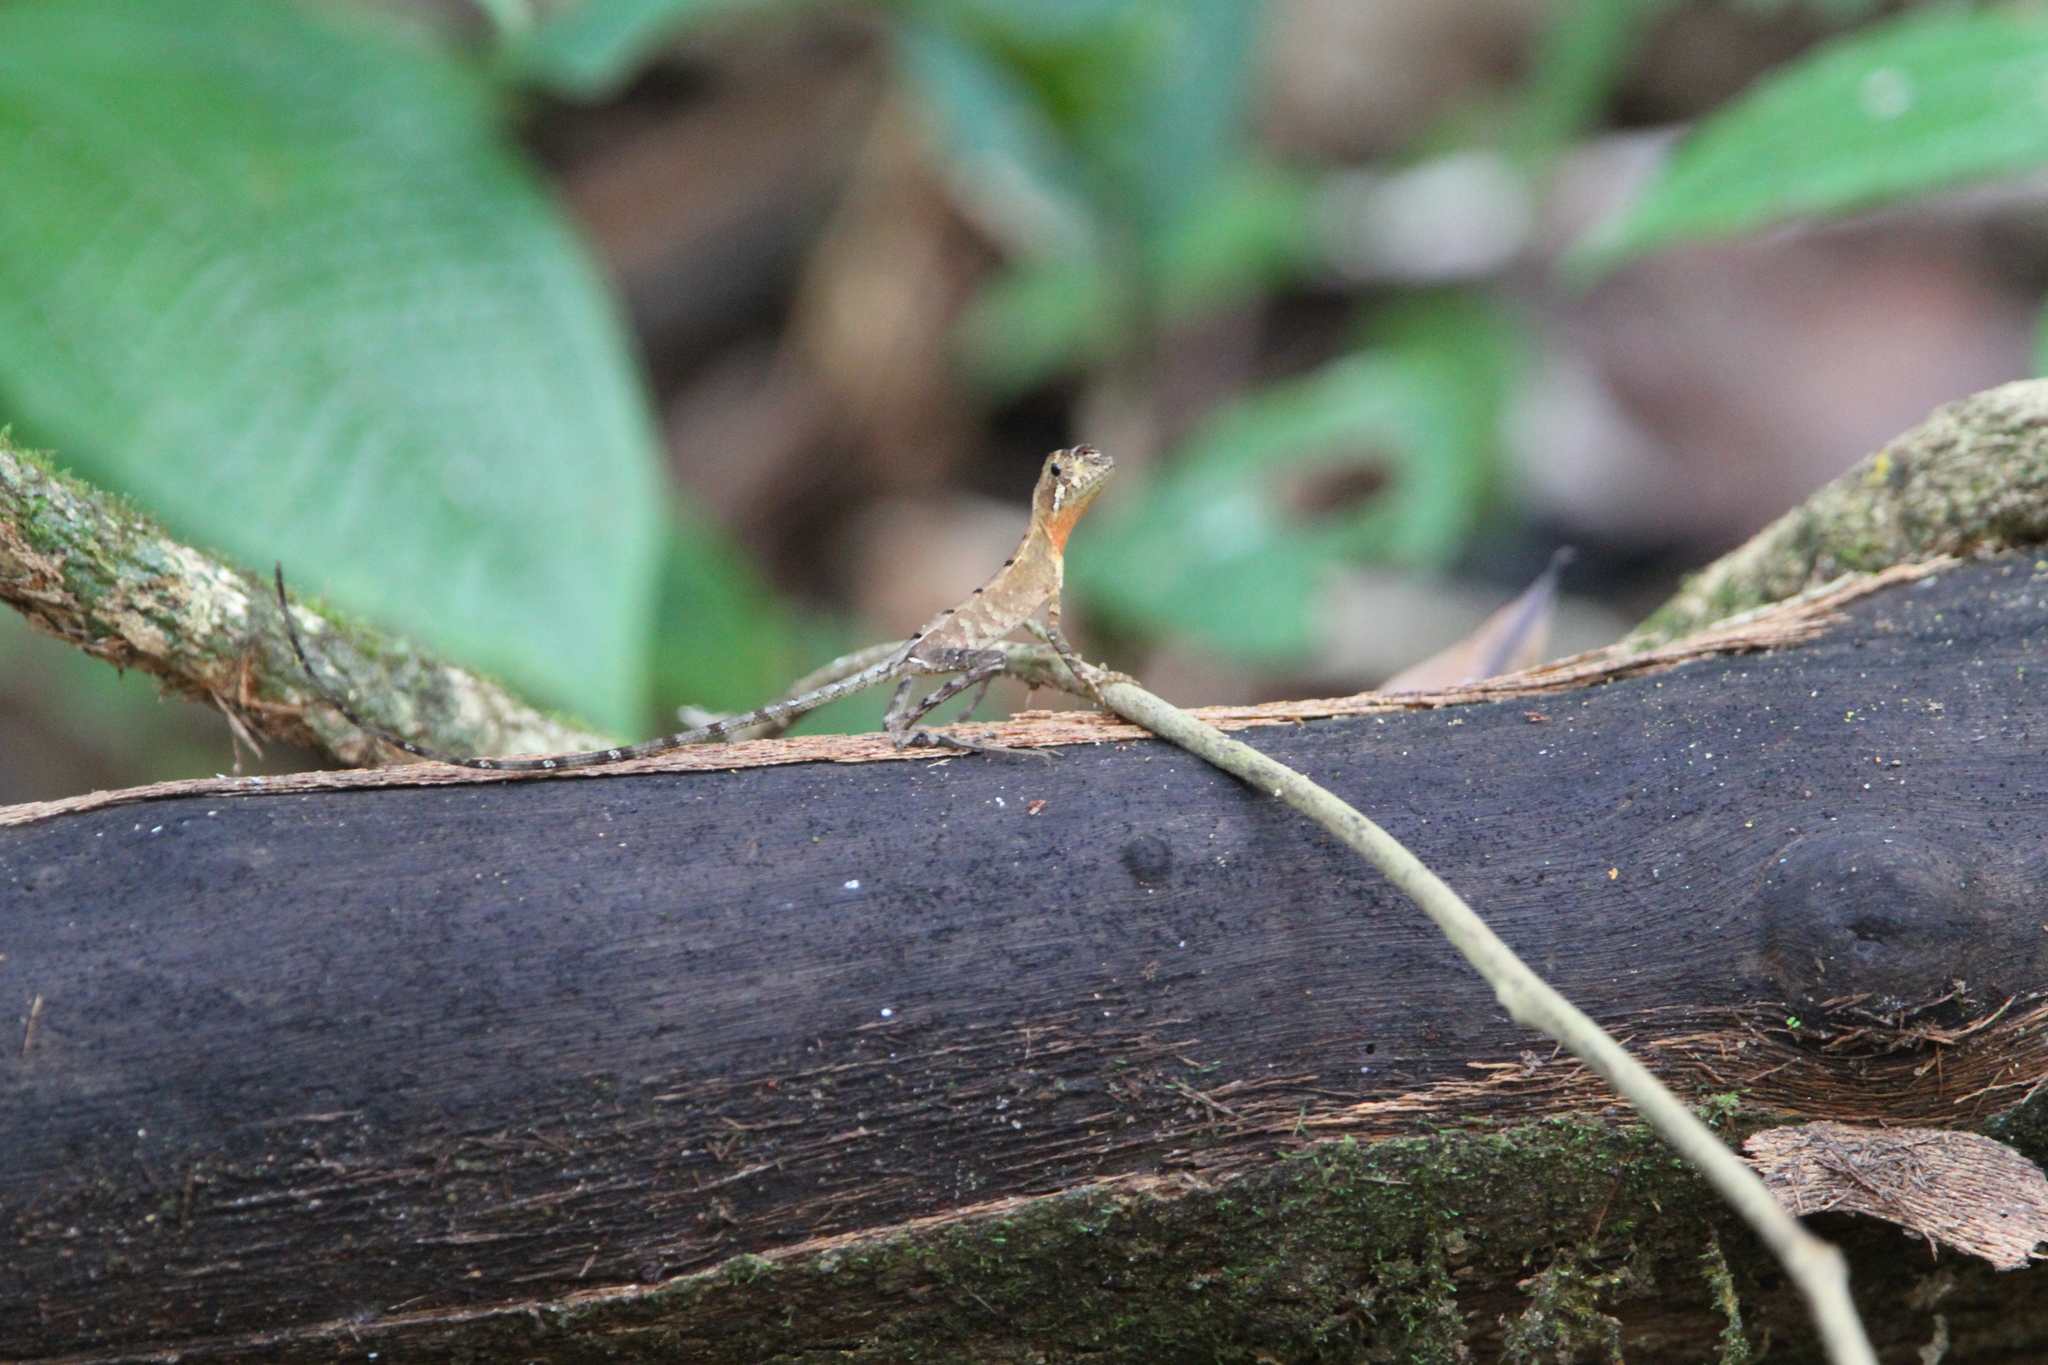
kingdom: Animalia
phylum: Chordata
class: Squamata
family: Agamidae
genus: Otocryptis
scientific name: Otocryptis wiegmanni
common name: Wiegmann's agama
